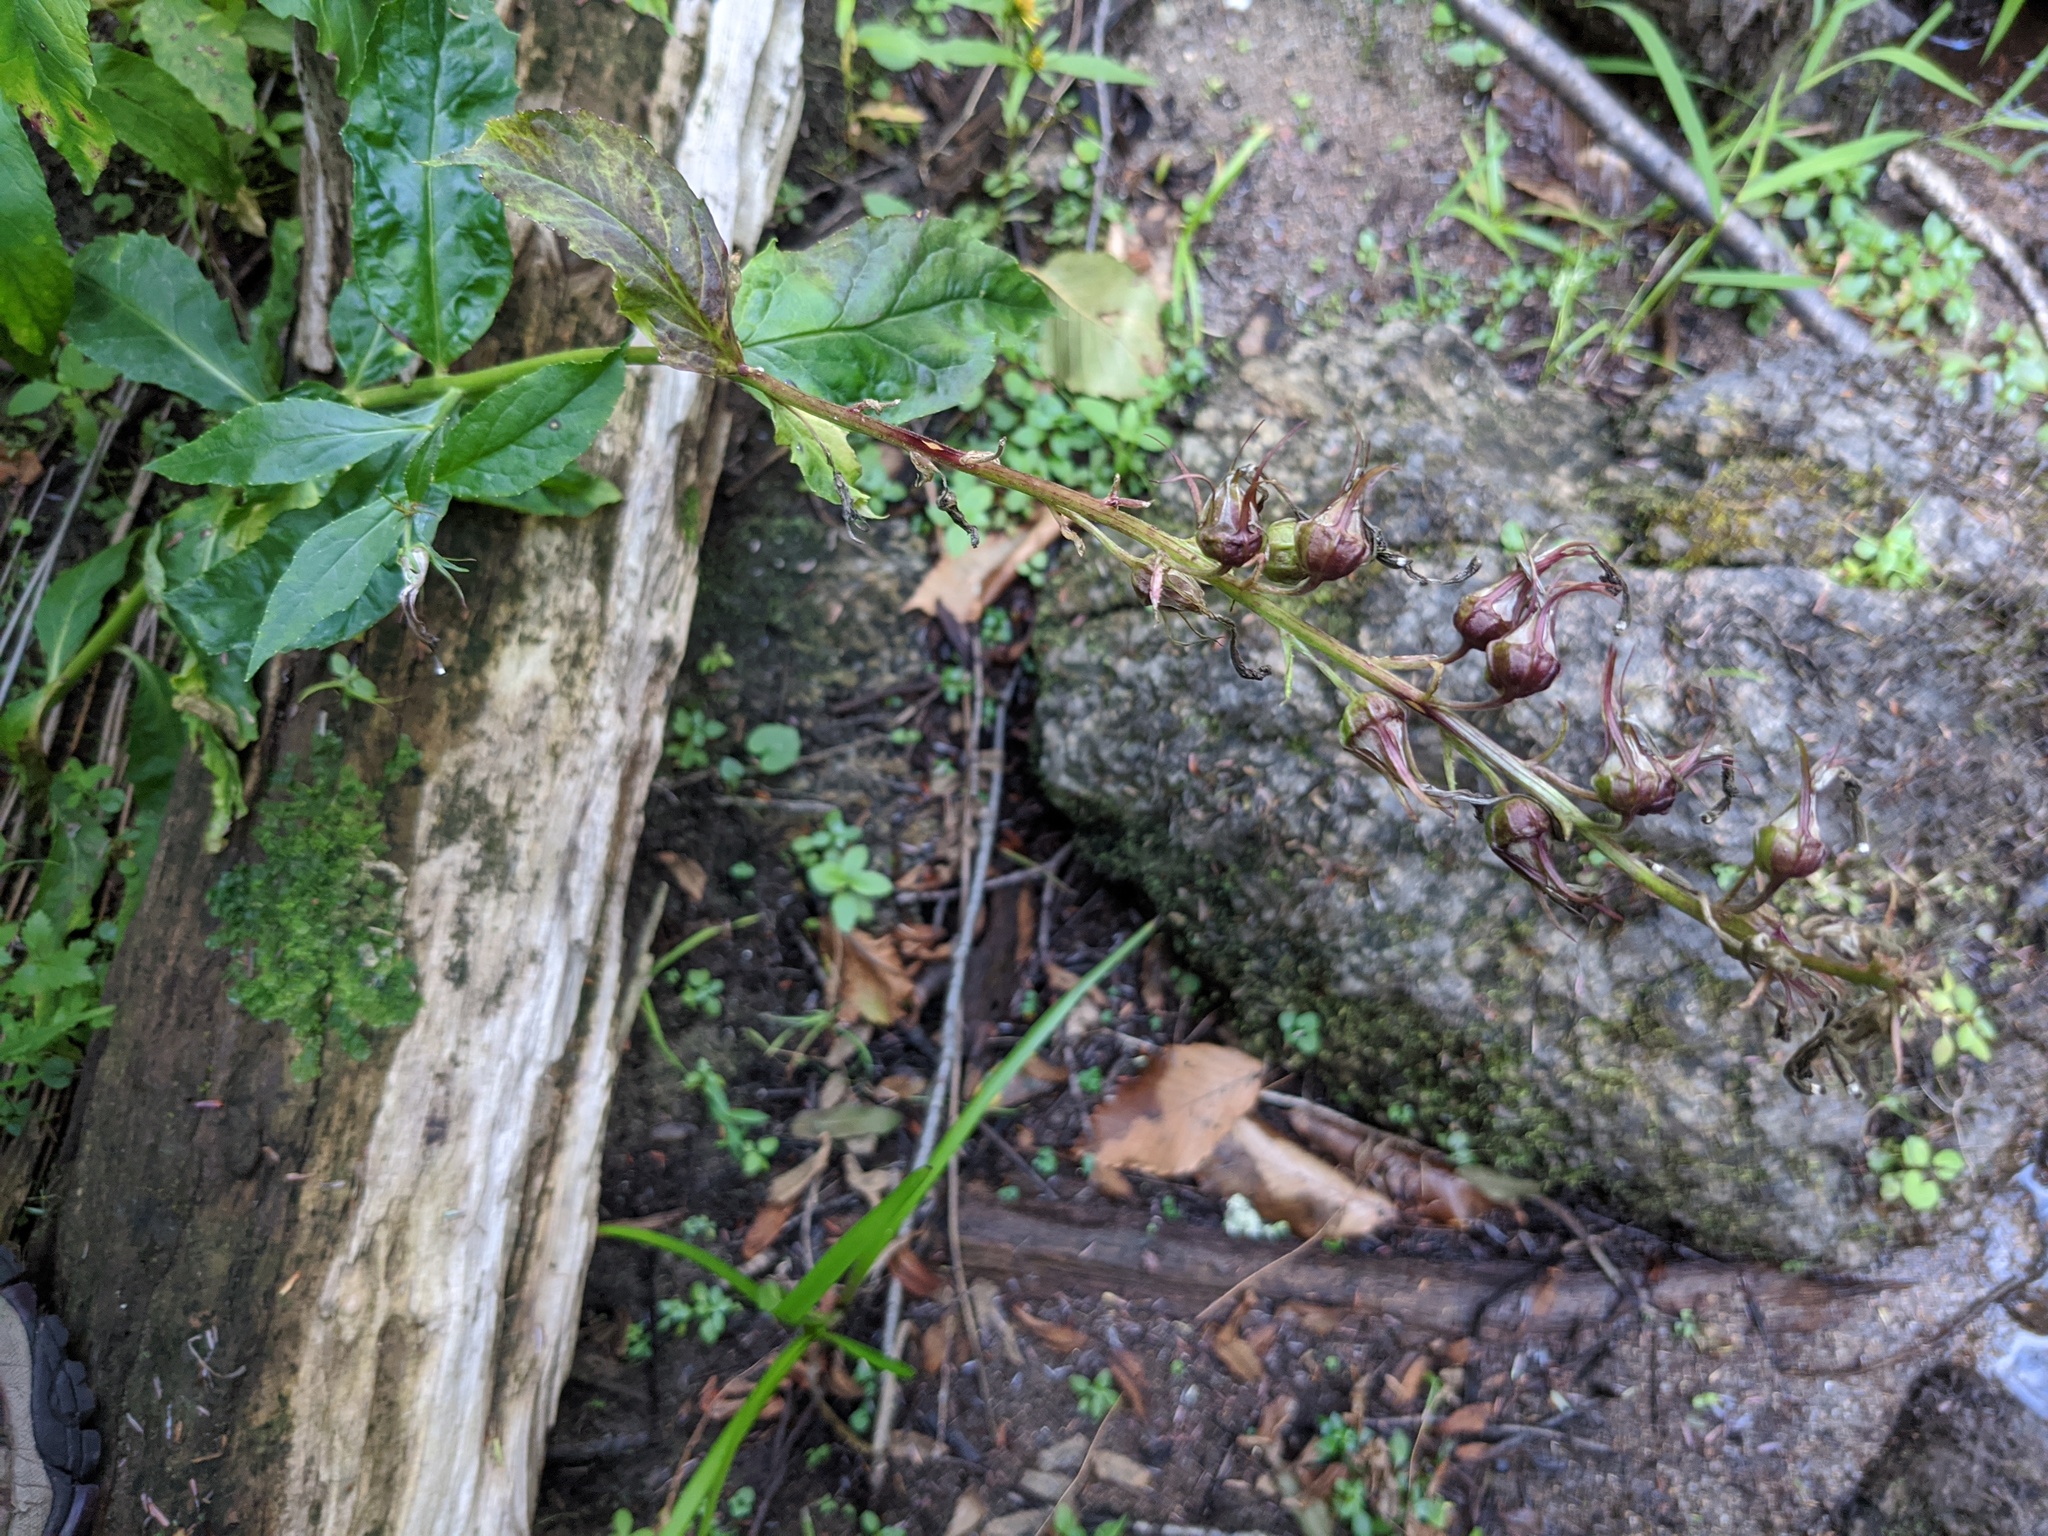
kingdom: Plantae
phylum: Tracheophyta
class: Magnoliopsida
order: Asterales
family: Campanulaceae
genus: Lobelia
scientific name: Lobelia cardinalis
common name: Cardinal flower
